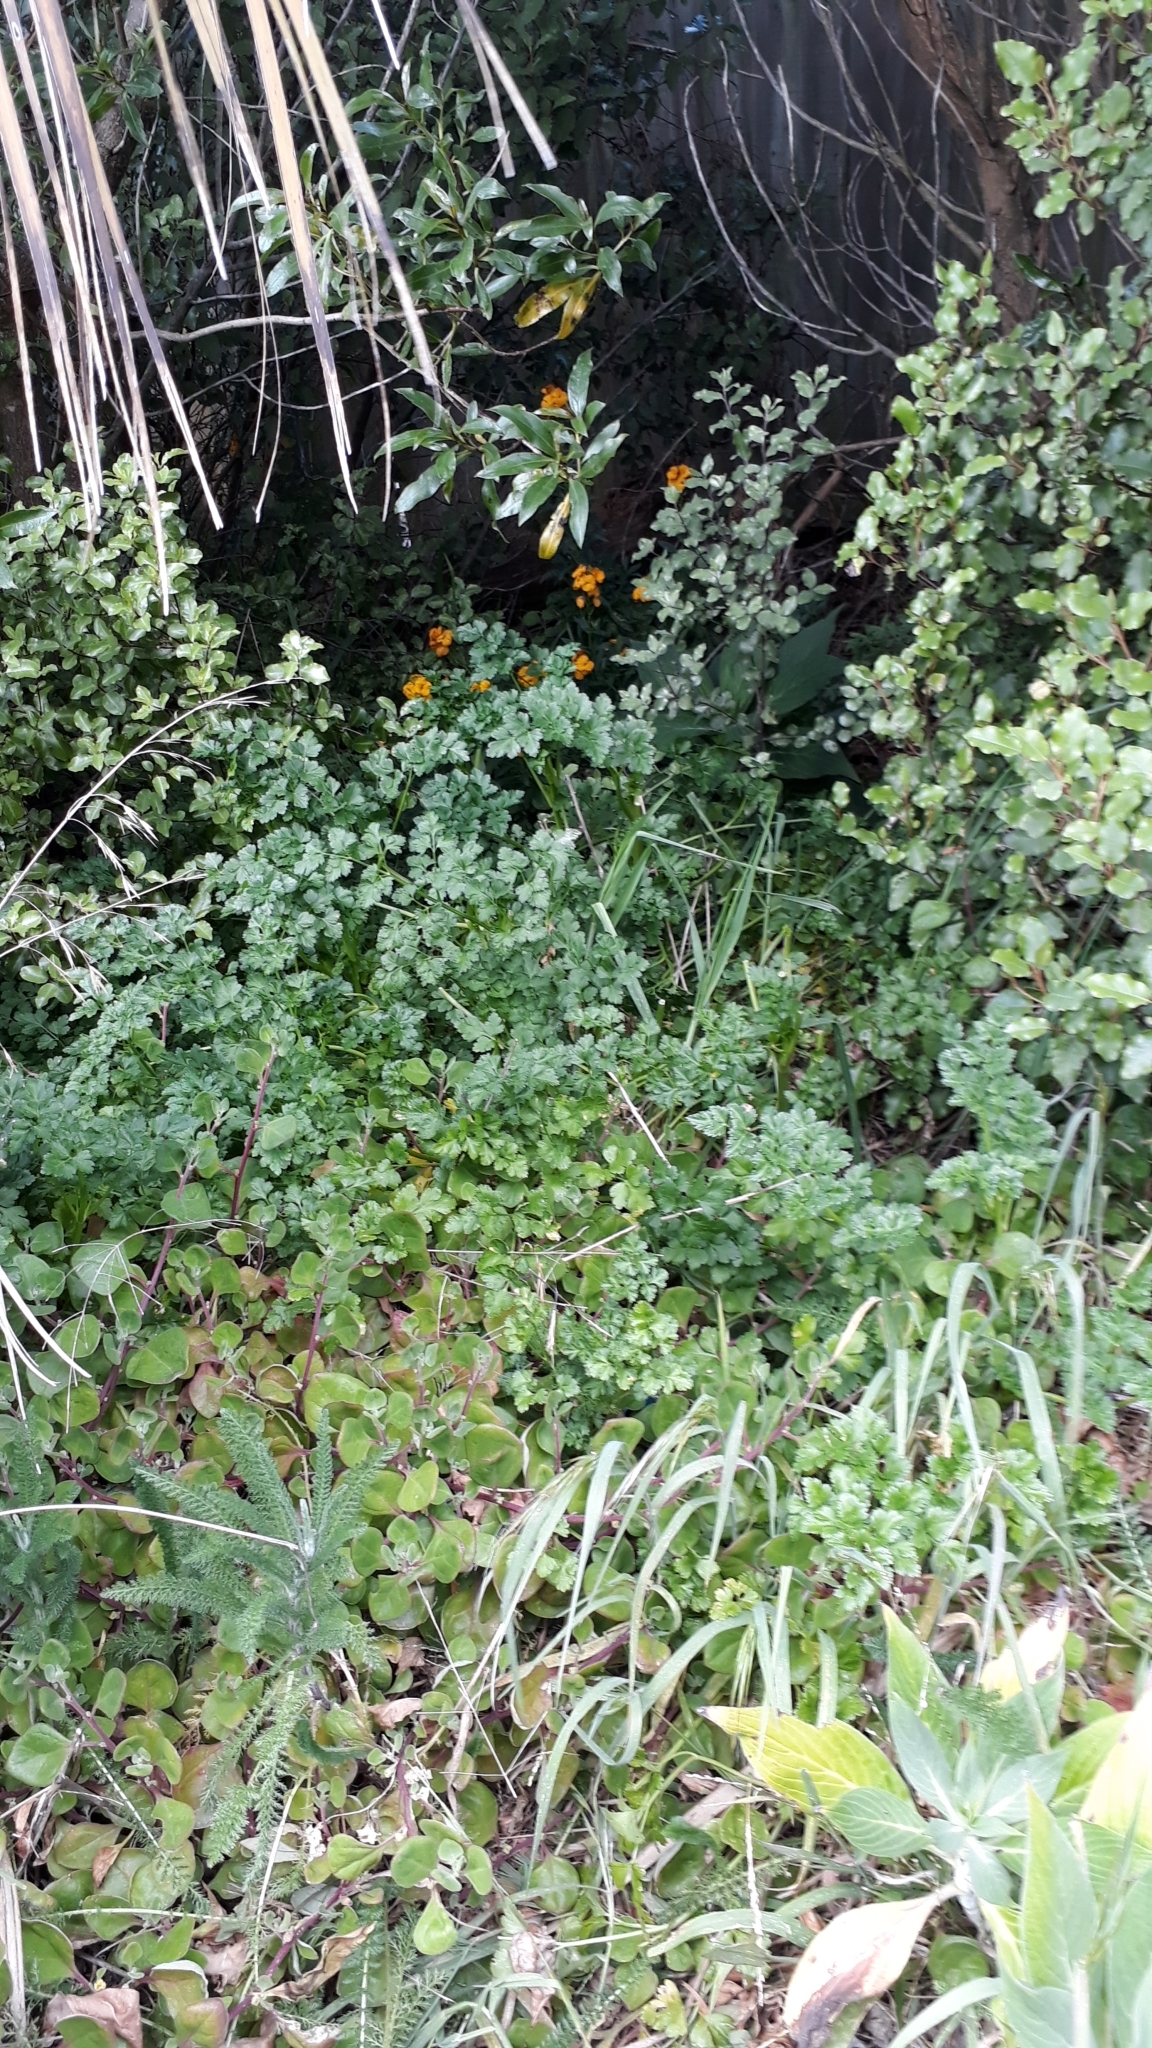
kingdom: Plantae
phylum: Tracheophyta
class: Magnoliopsida
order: Apiales
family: Apiaceae
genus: Petroselinum
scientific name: Petroselinum crispum
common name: Parsley
